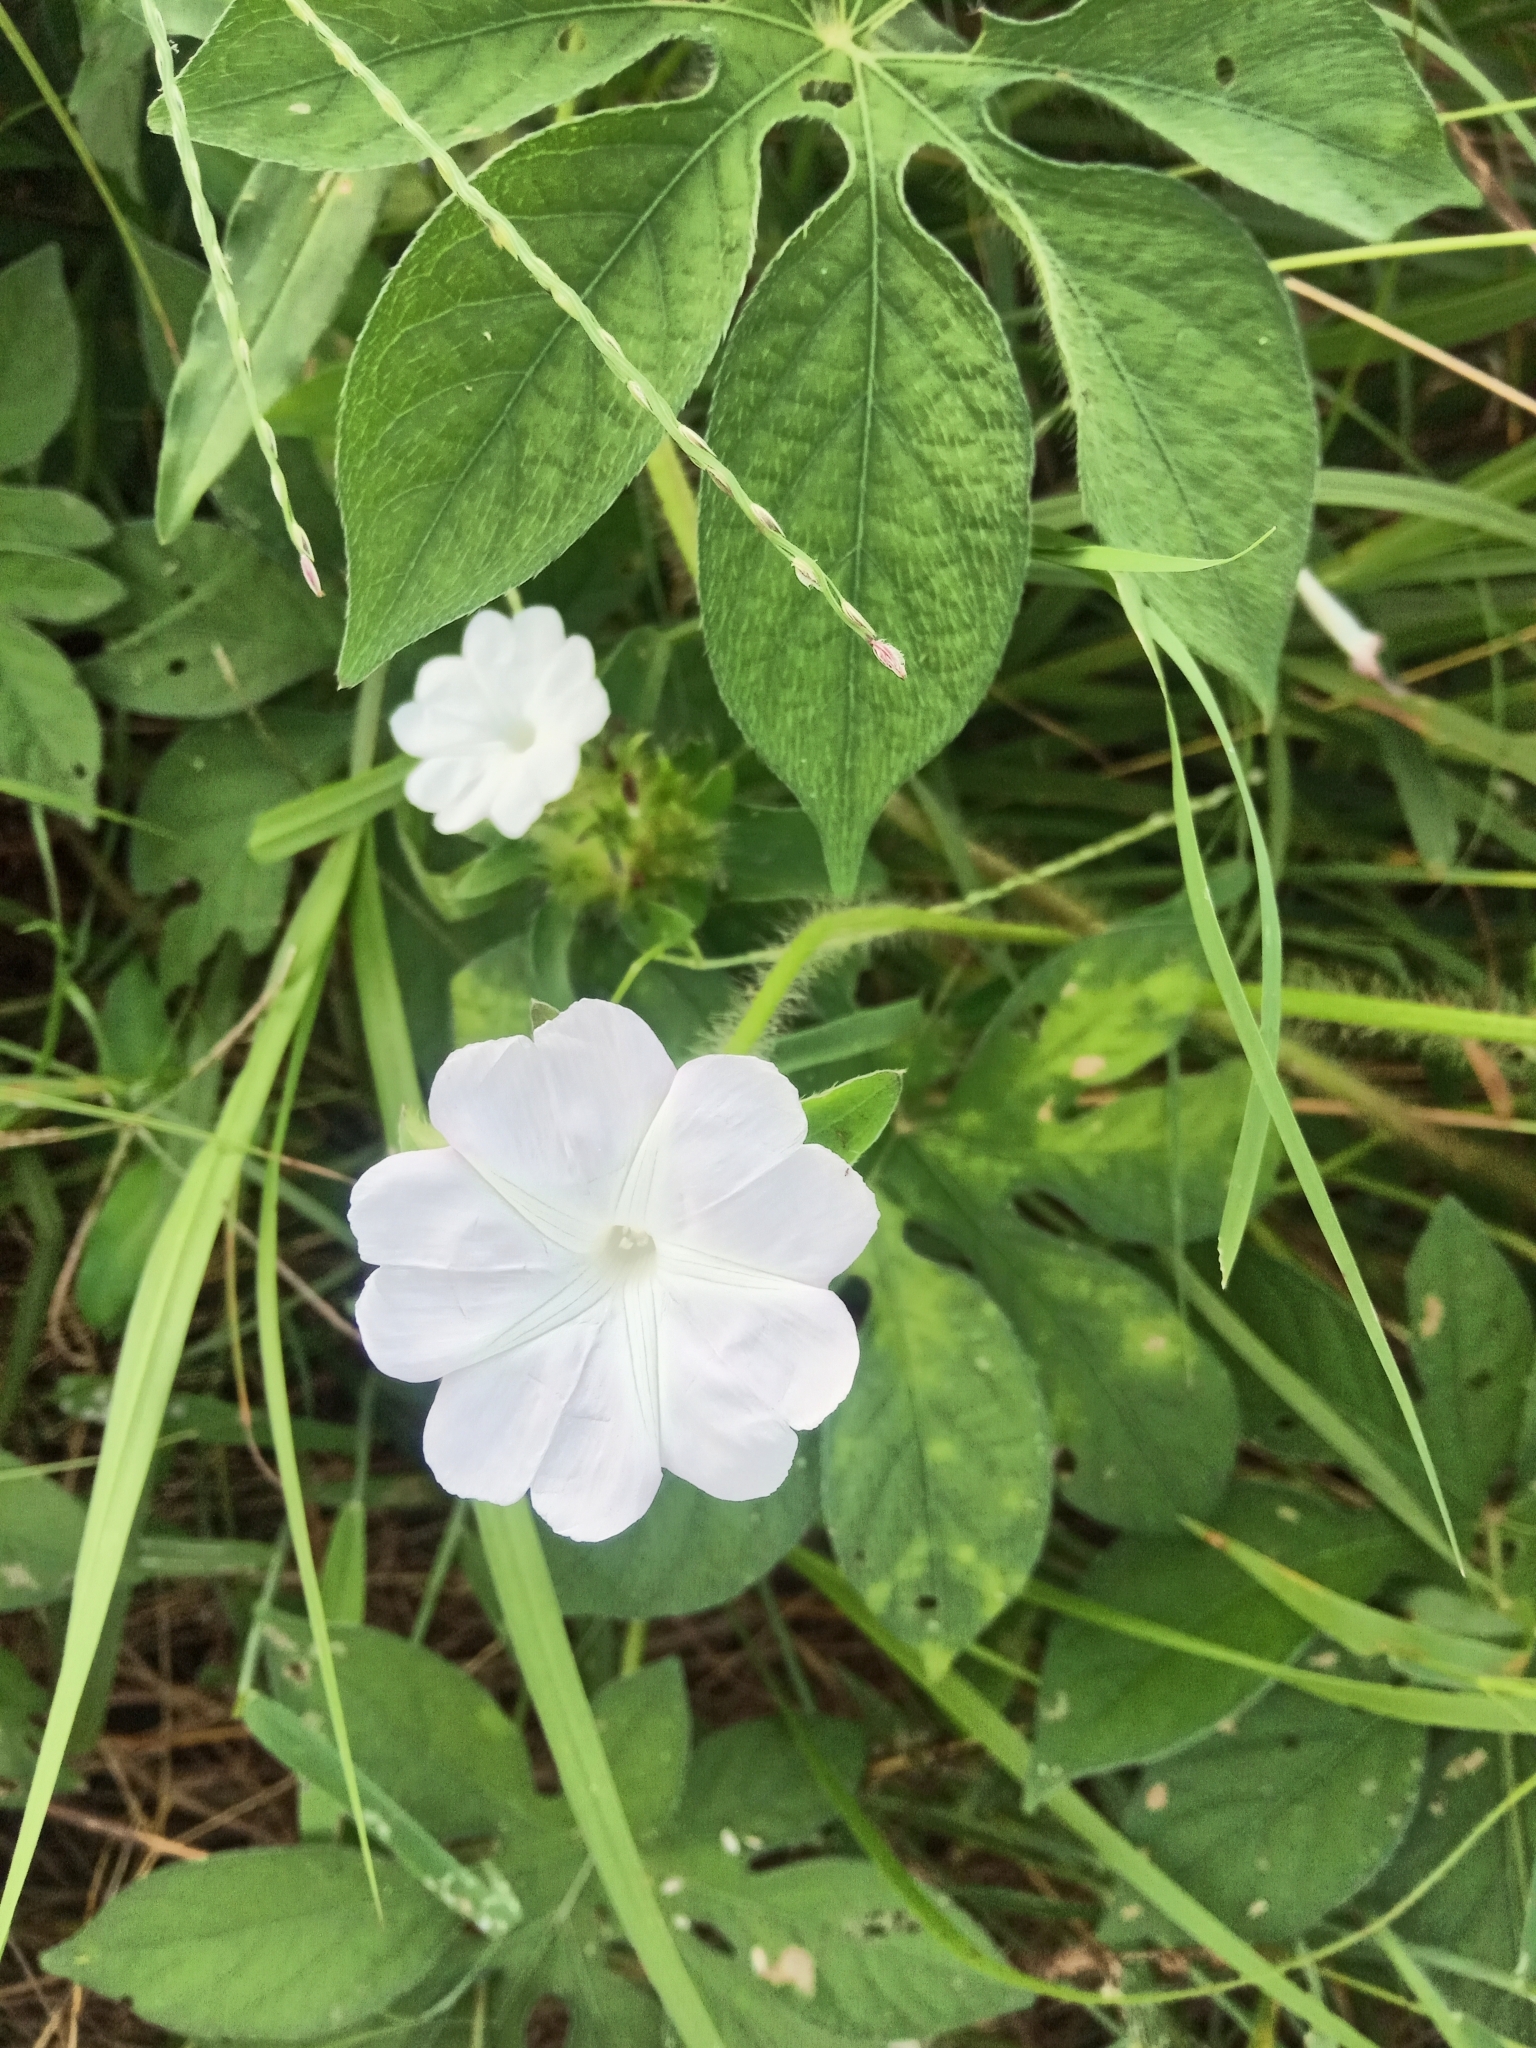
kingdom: Plantae
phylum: Tracheophyta
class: Magnoliopsida
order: Solanales
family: Convolvulaceae
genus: Ipomoea
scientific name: Ipomoea pes-tigridis
